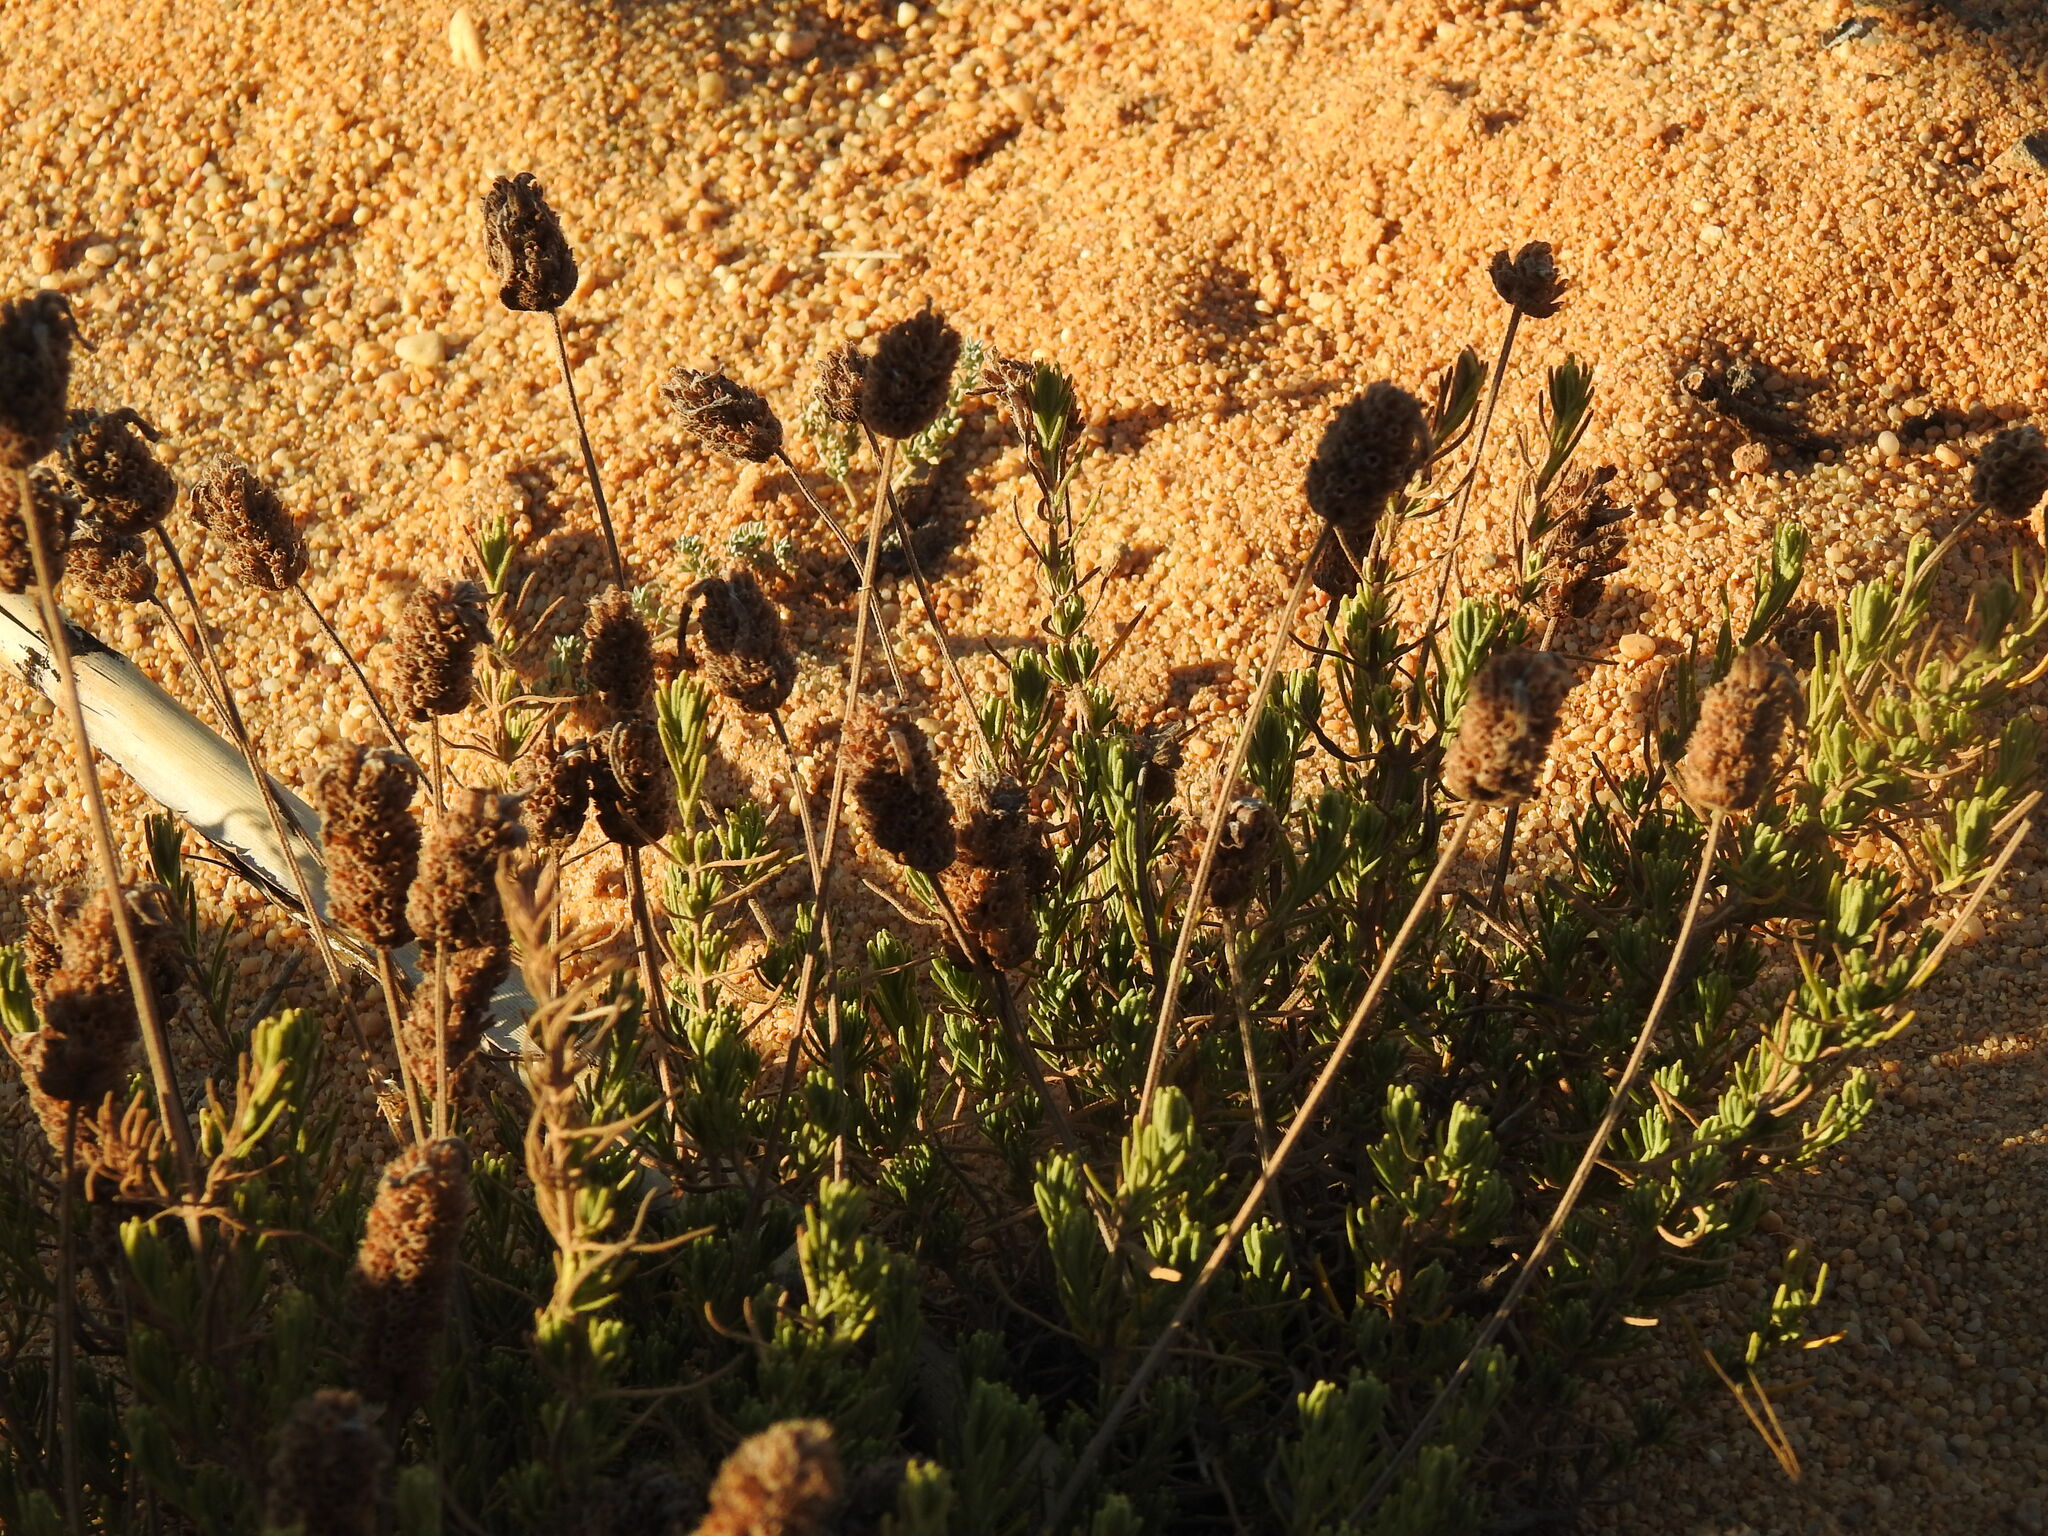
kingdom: Plantae
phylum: Tracheophyta
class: Magnoliopsida
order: Lamiales
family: Lamiaceae
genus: Lavandula
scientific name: Lavandula pedunculata
